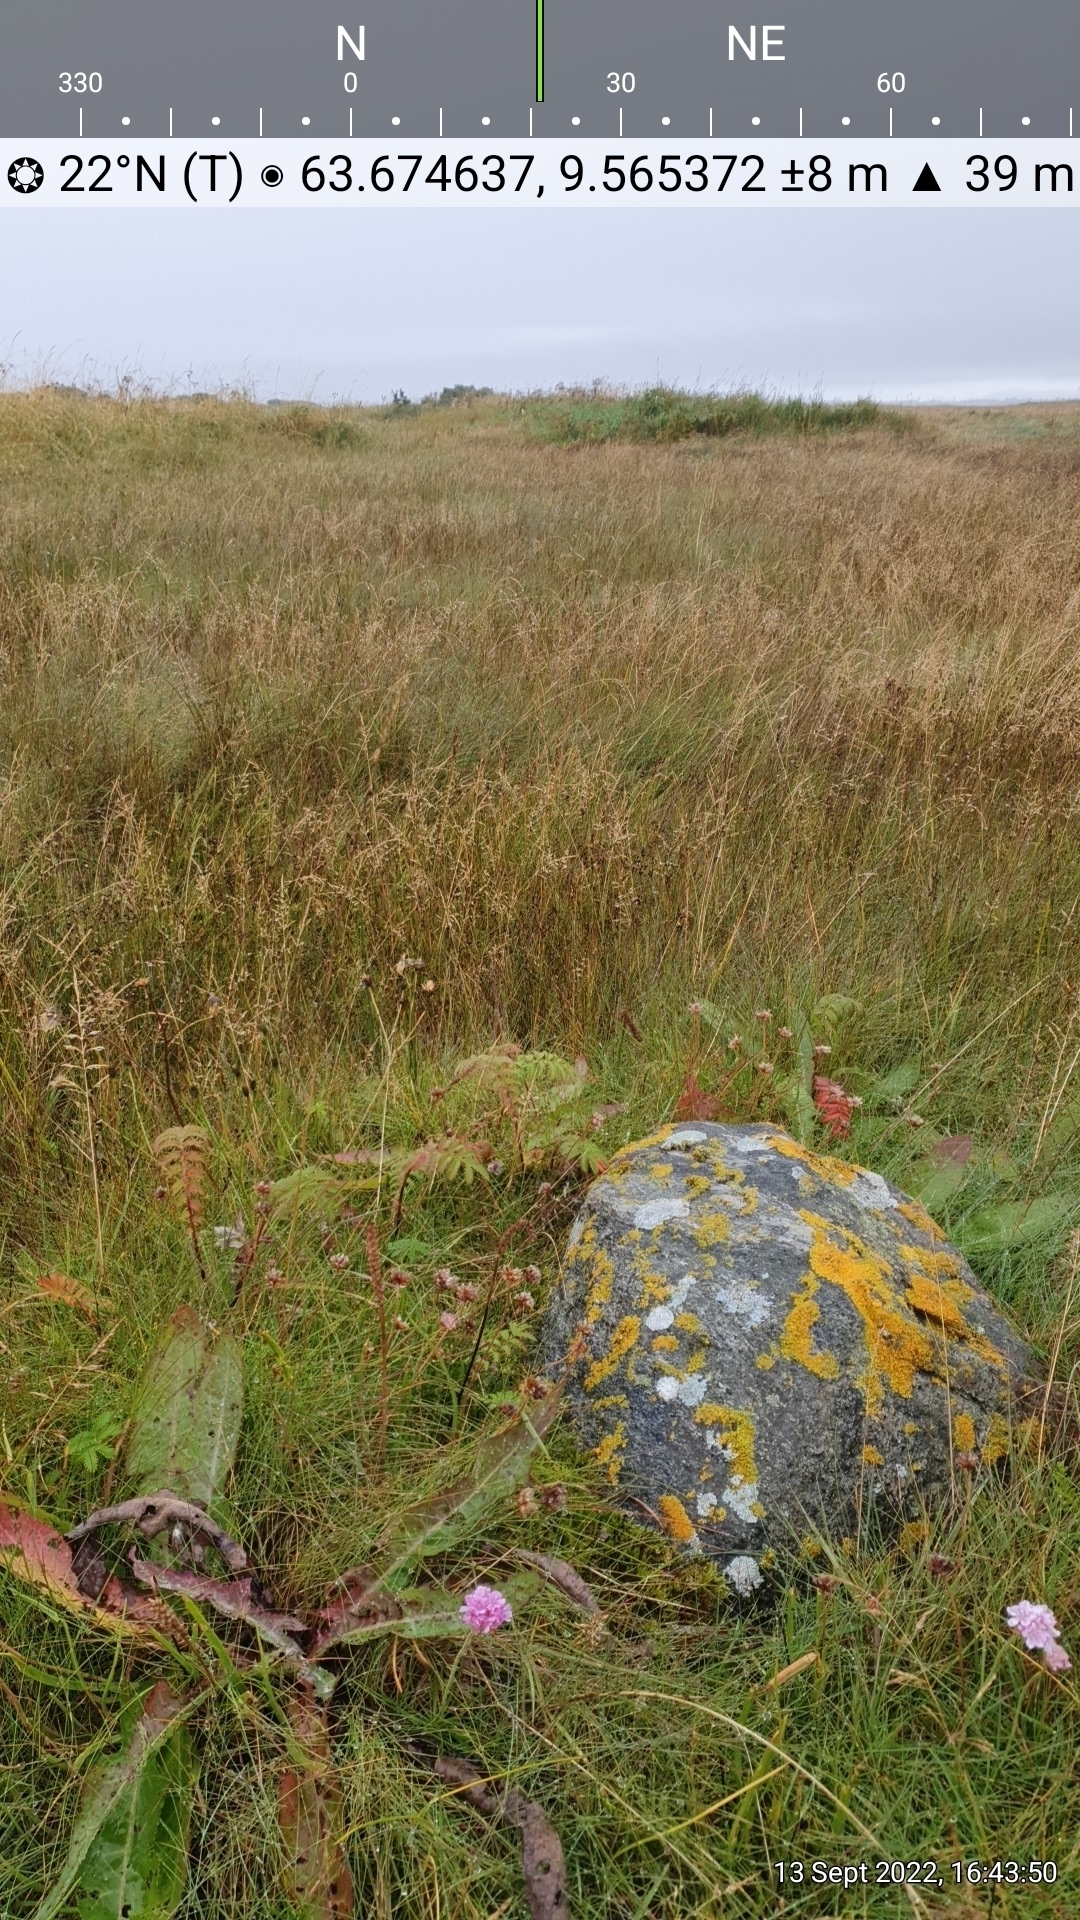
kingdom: Plantae
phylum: Tracheophyta
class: Magnoliopsida
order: Rosales
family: Rosaceae
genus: Argentina
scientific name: Argentina anserina
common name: Common silverweed
